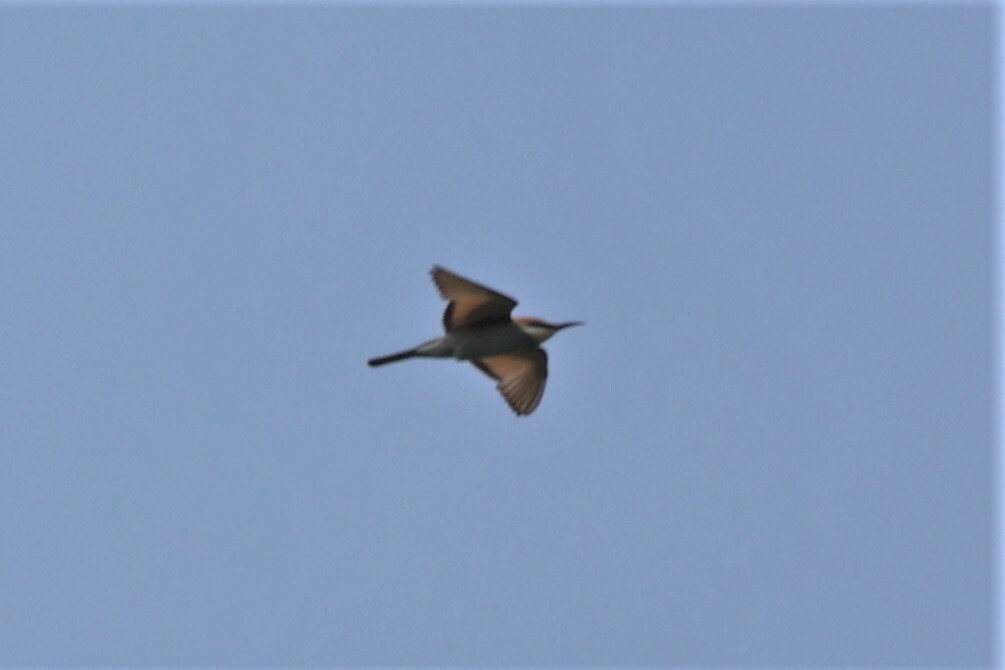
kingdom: Animalia
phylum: Chordata
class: Aves
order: Coraciiformes
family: Meropidae
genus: Merops
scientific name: Merops apiaster
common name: European bee-eater
